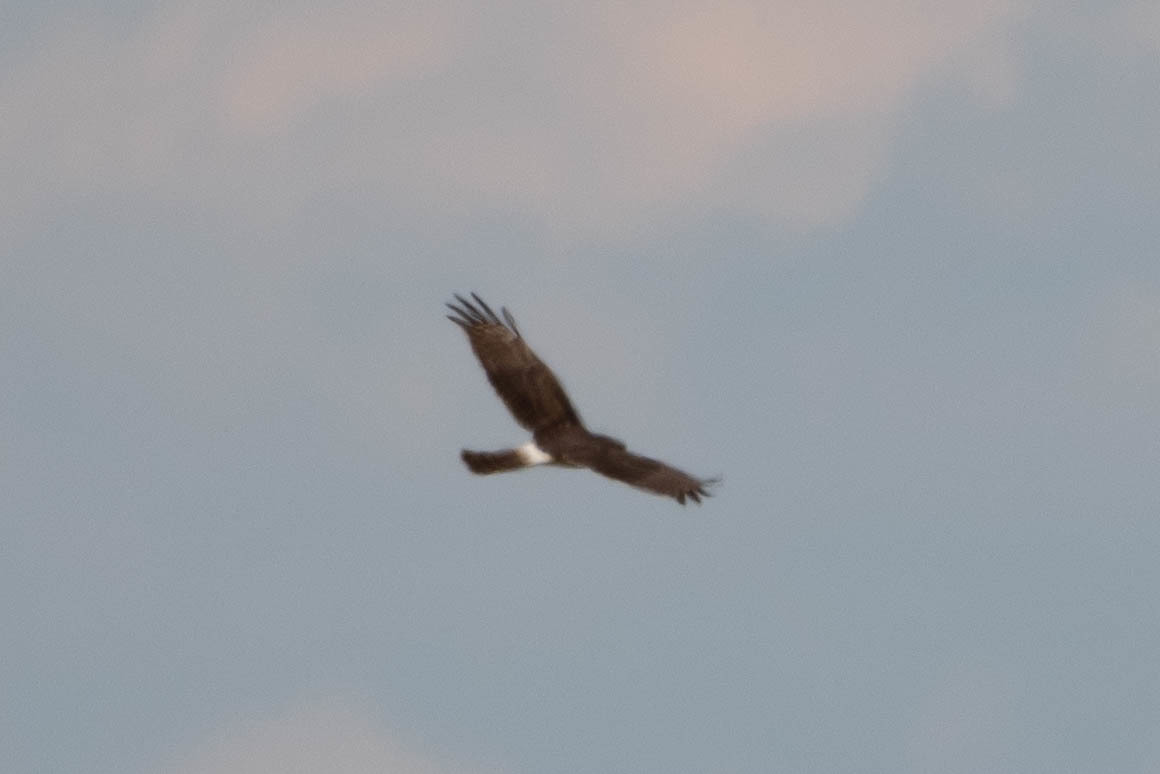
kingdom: Animalia
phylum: Chordata
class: Aves
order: Accipitriformes
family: Accipitridae
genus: Circus
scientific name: Circus cyaneus
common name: Hen harrier
